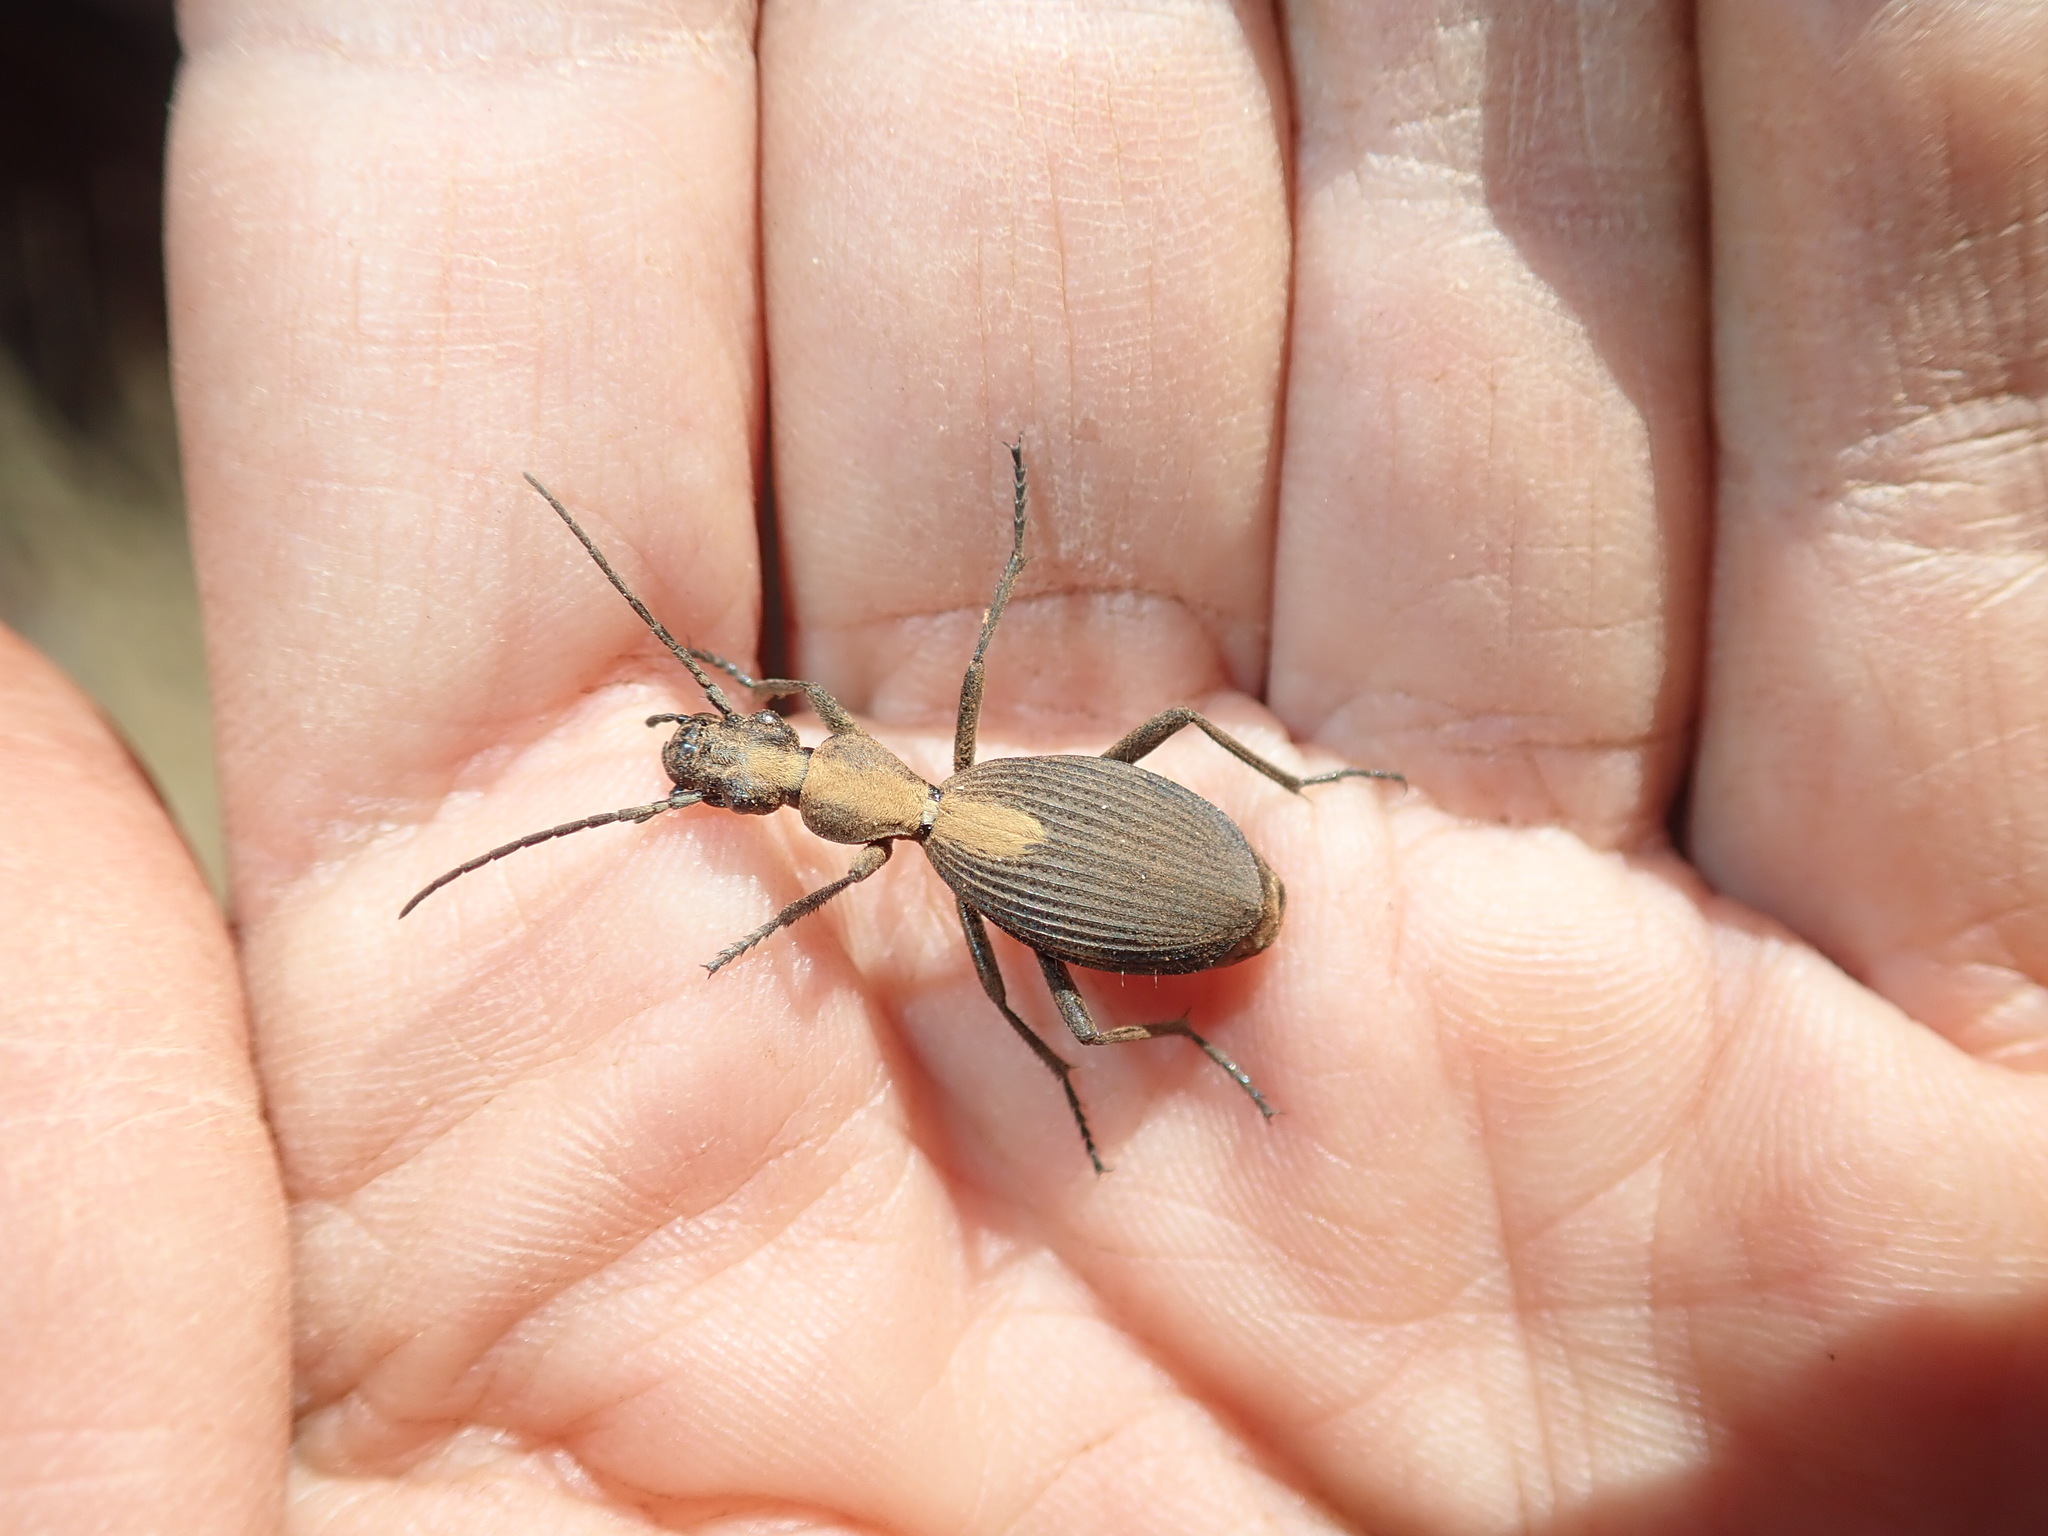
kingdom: Animalia
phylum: Arthropoda
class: Insecta
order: Coleoptera
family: Carabidae
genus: Cypholoba
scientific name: Cypholoba opulenta
